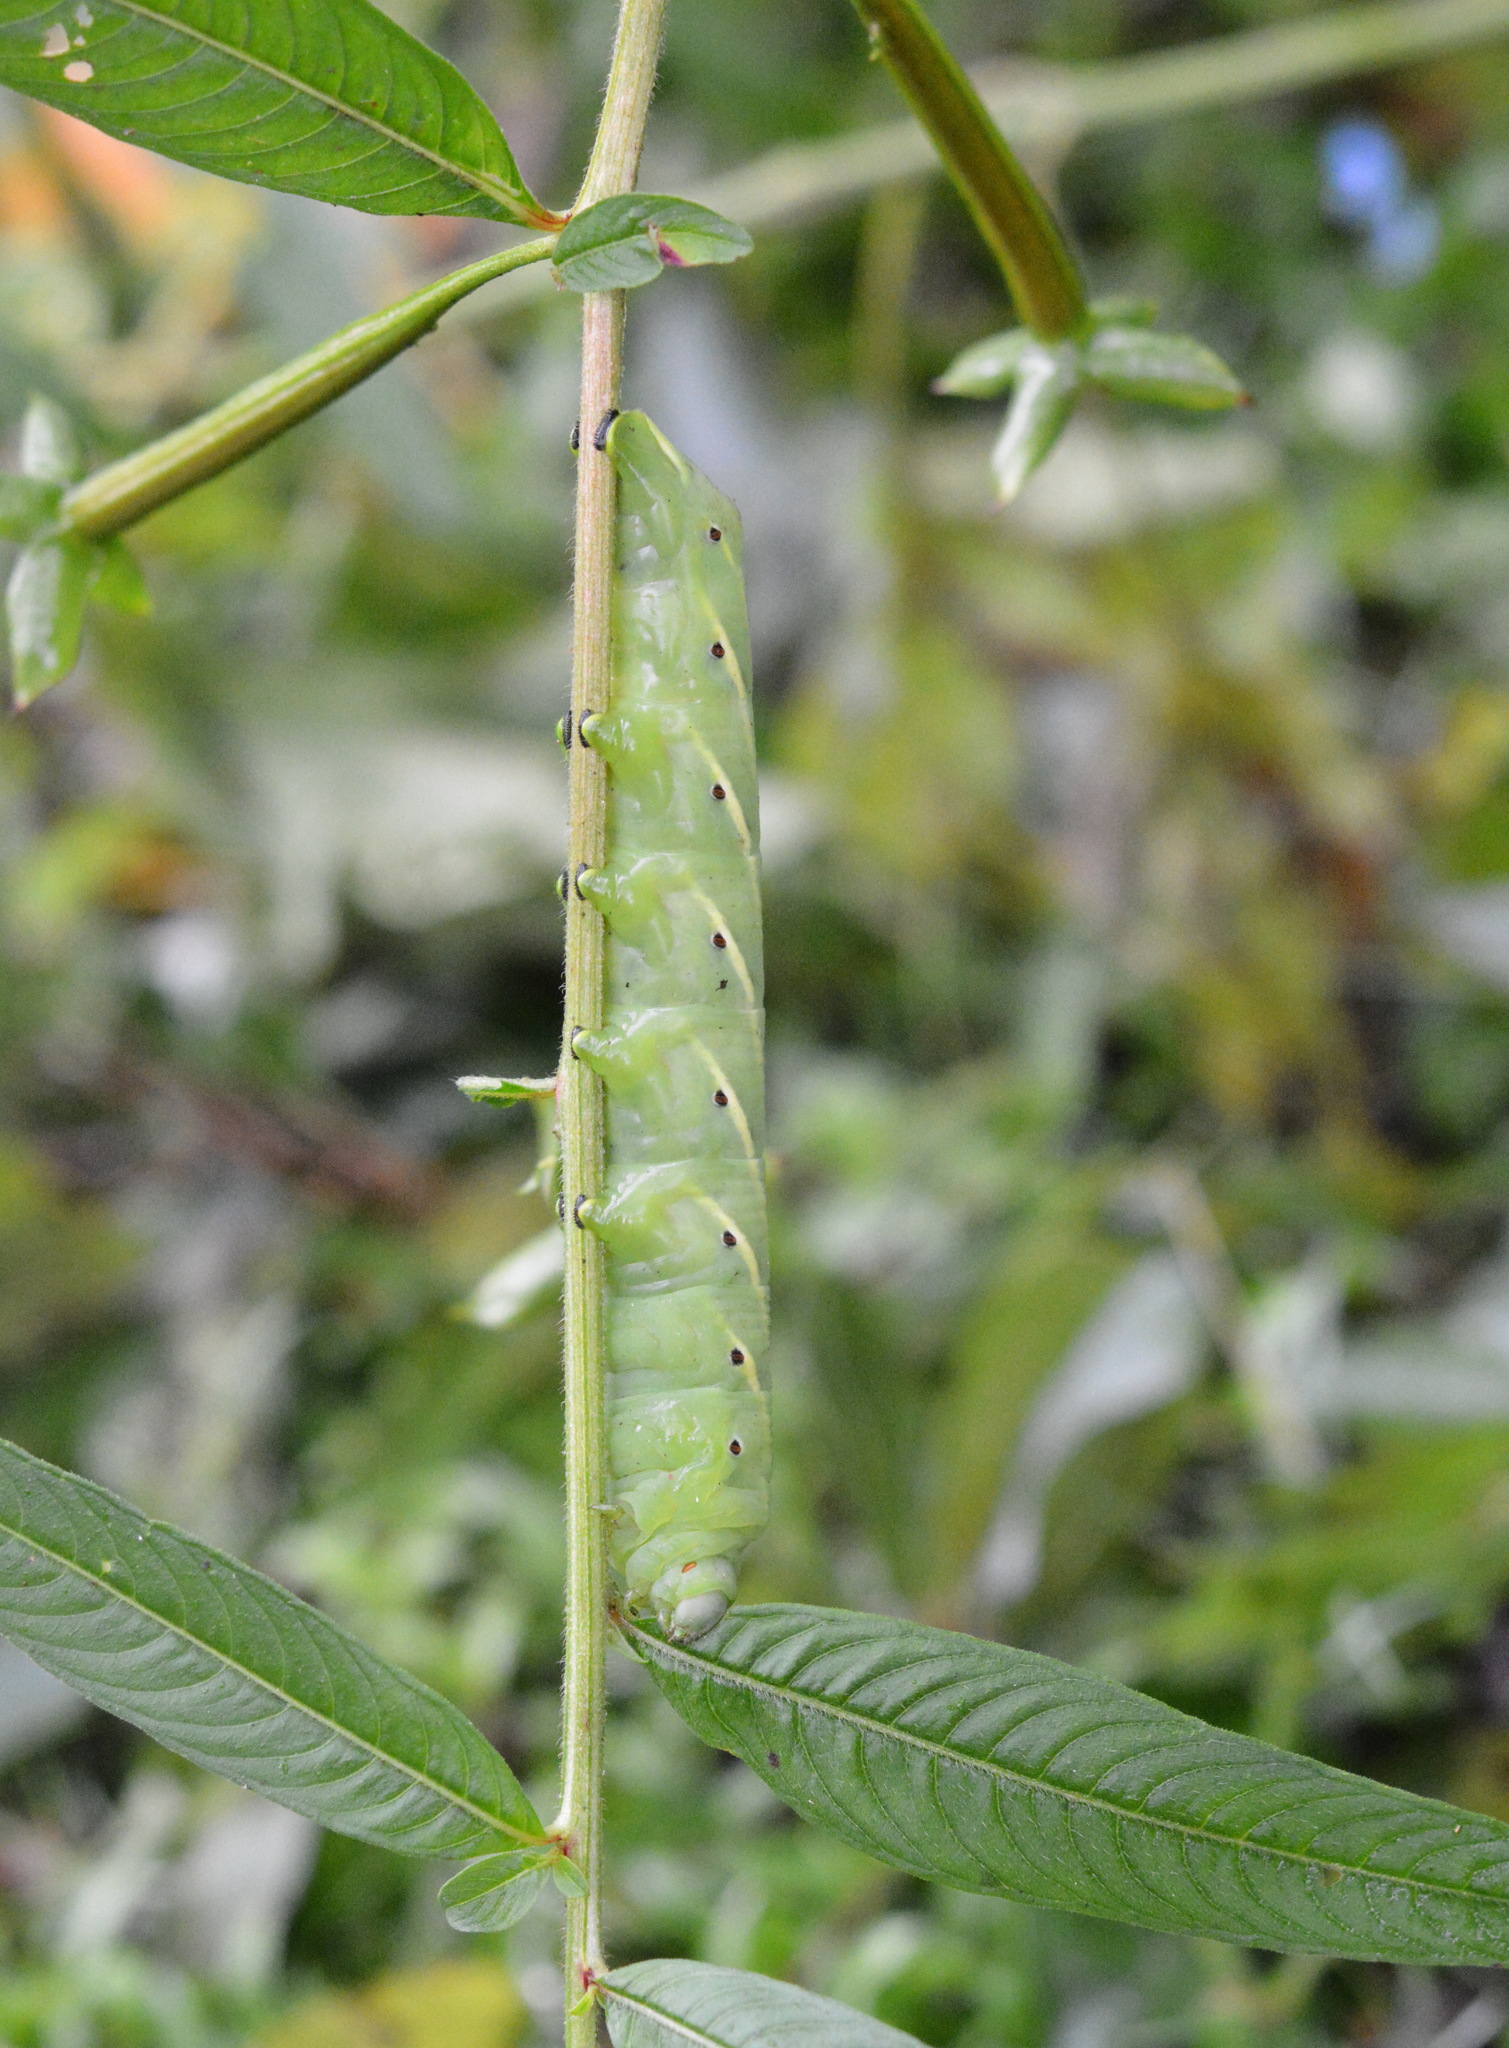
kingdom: Animalia
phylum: Arthropoda
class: Insecta
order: Lepidoptera
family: Sphingidae
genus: Eumorpha
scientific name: Eumorpha fasciatus
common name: Banded sphinx
